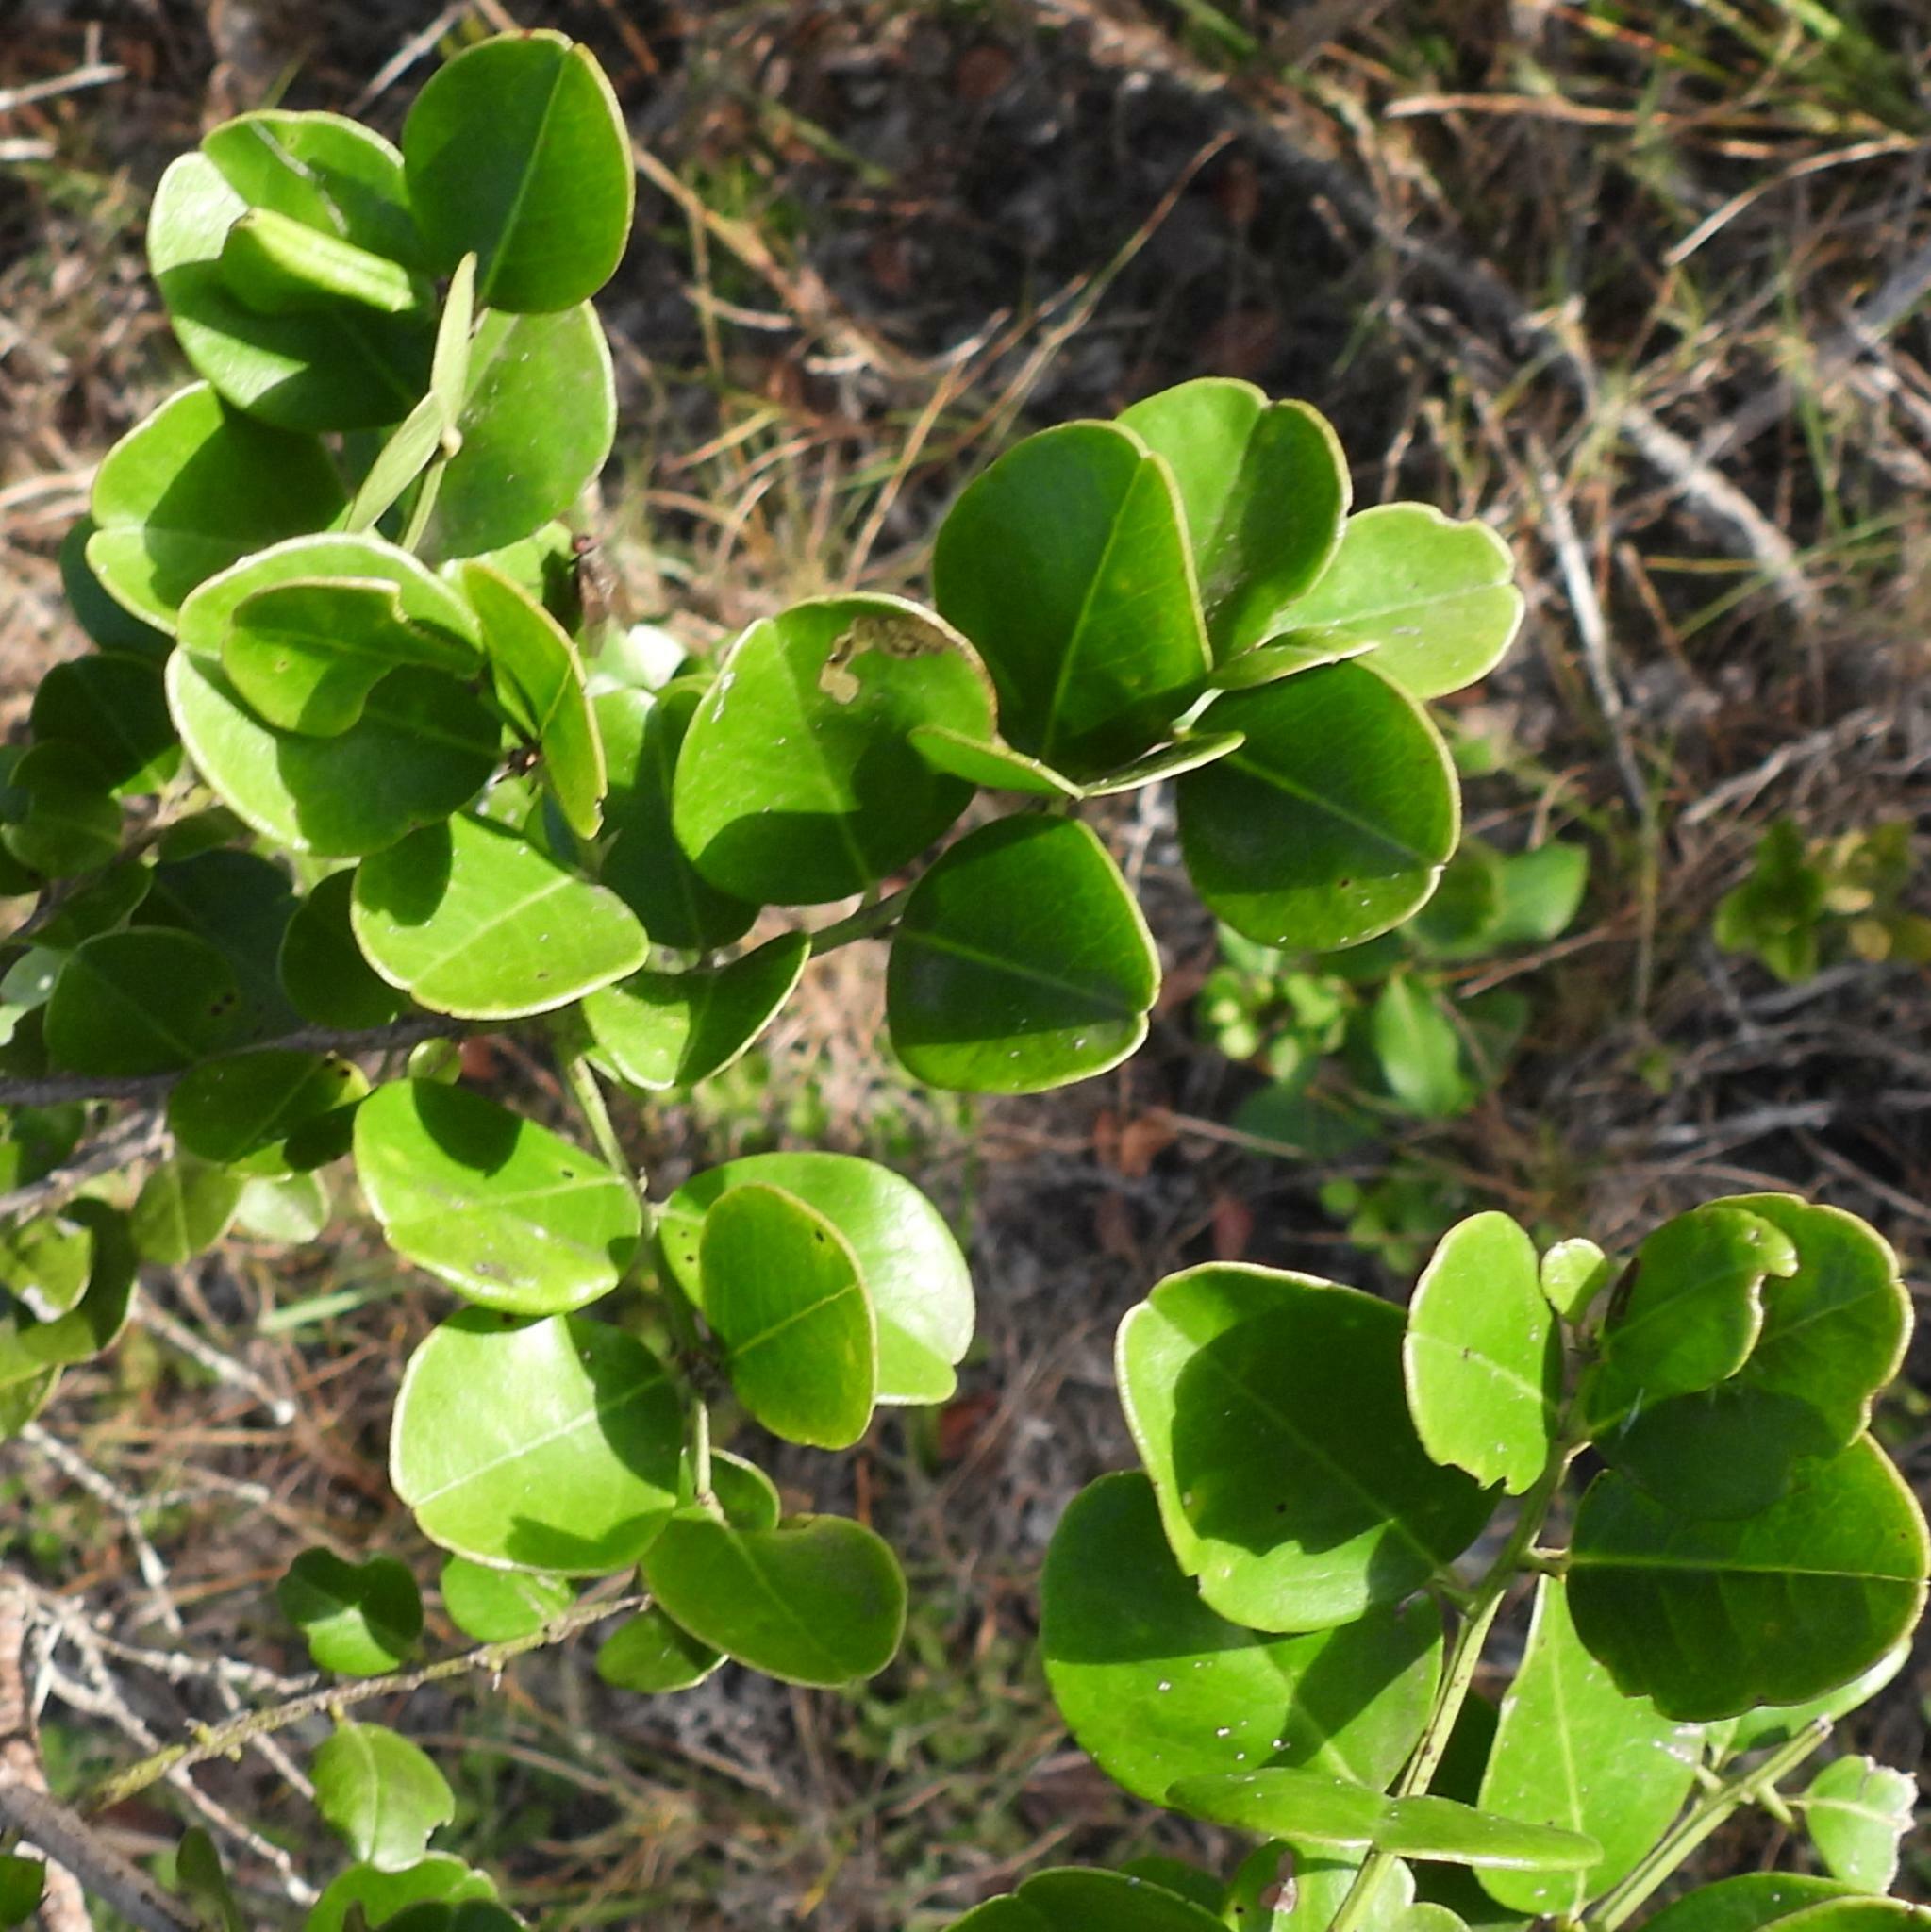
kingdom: Plantae
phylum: Tracheophyta
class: Magnoliopsida
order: Rosales
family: Rhamnaceae
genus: Scutia
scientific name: Scutia myrtina
